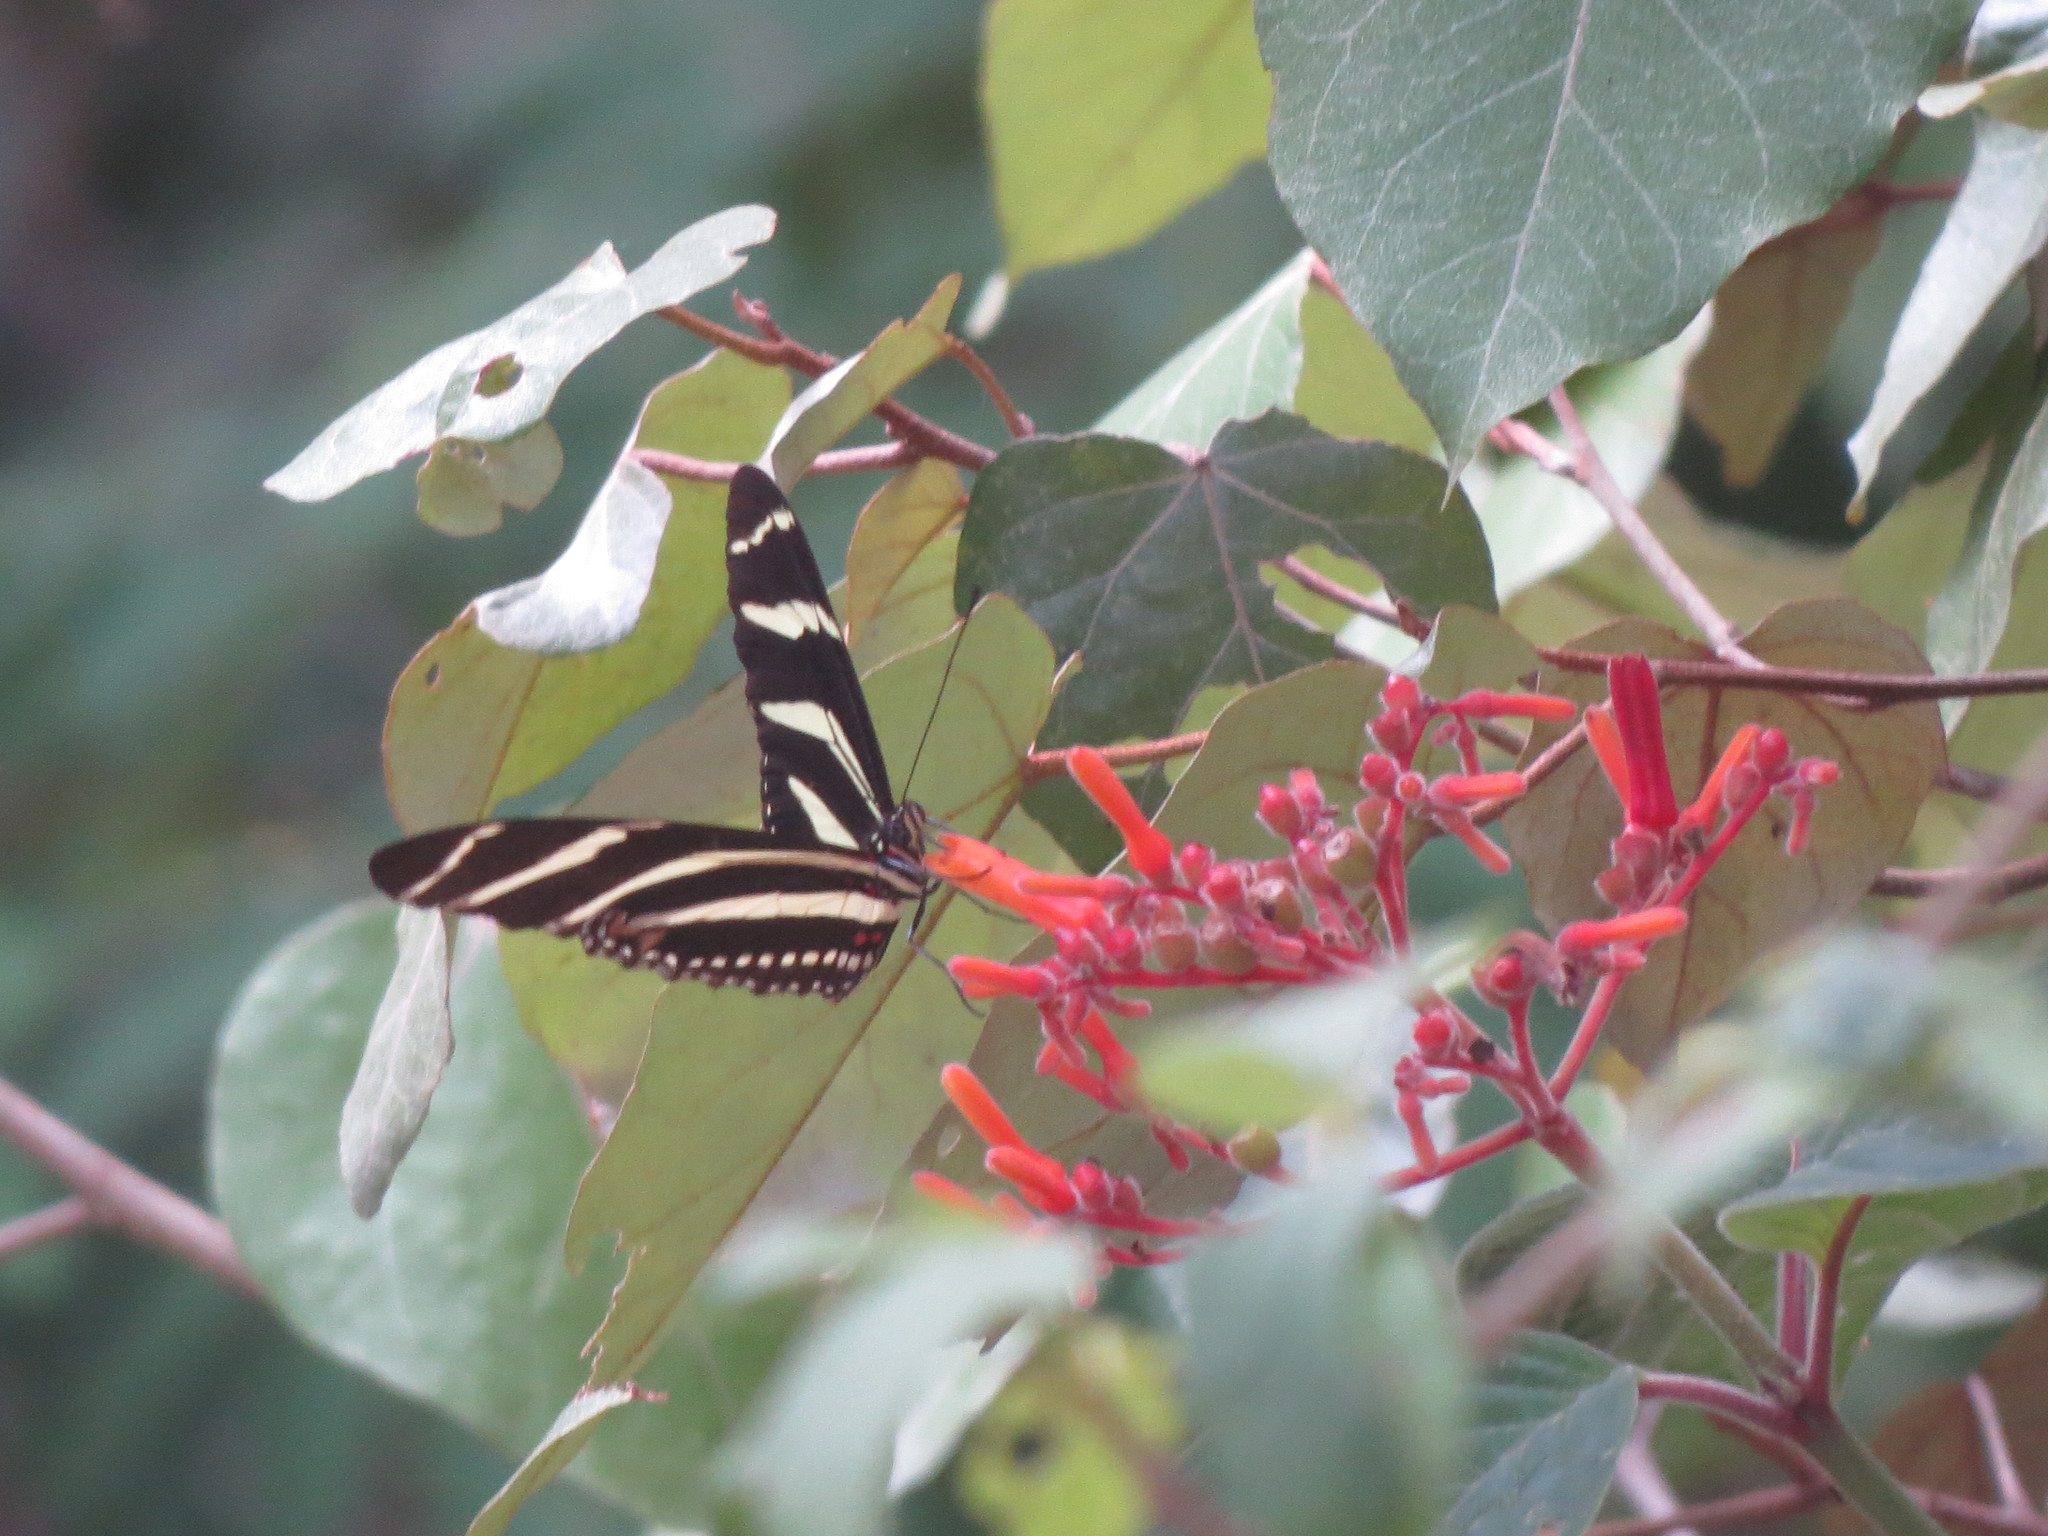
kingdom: Animalia
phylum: Arthropoda
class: Insecta
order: Lepidoptera
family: Nymphalidae
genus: Heliconius
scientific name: Heliconius charithonia
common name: Zebra long wing
